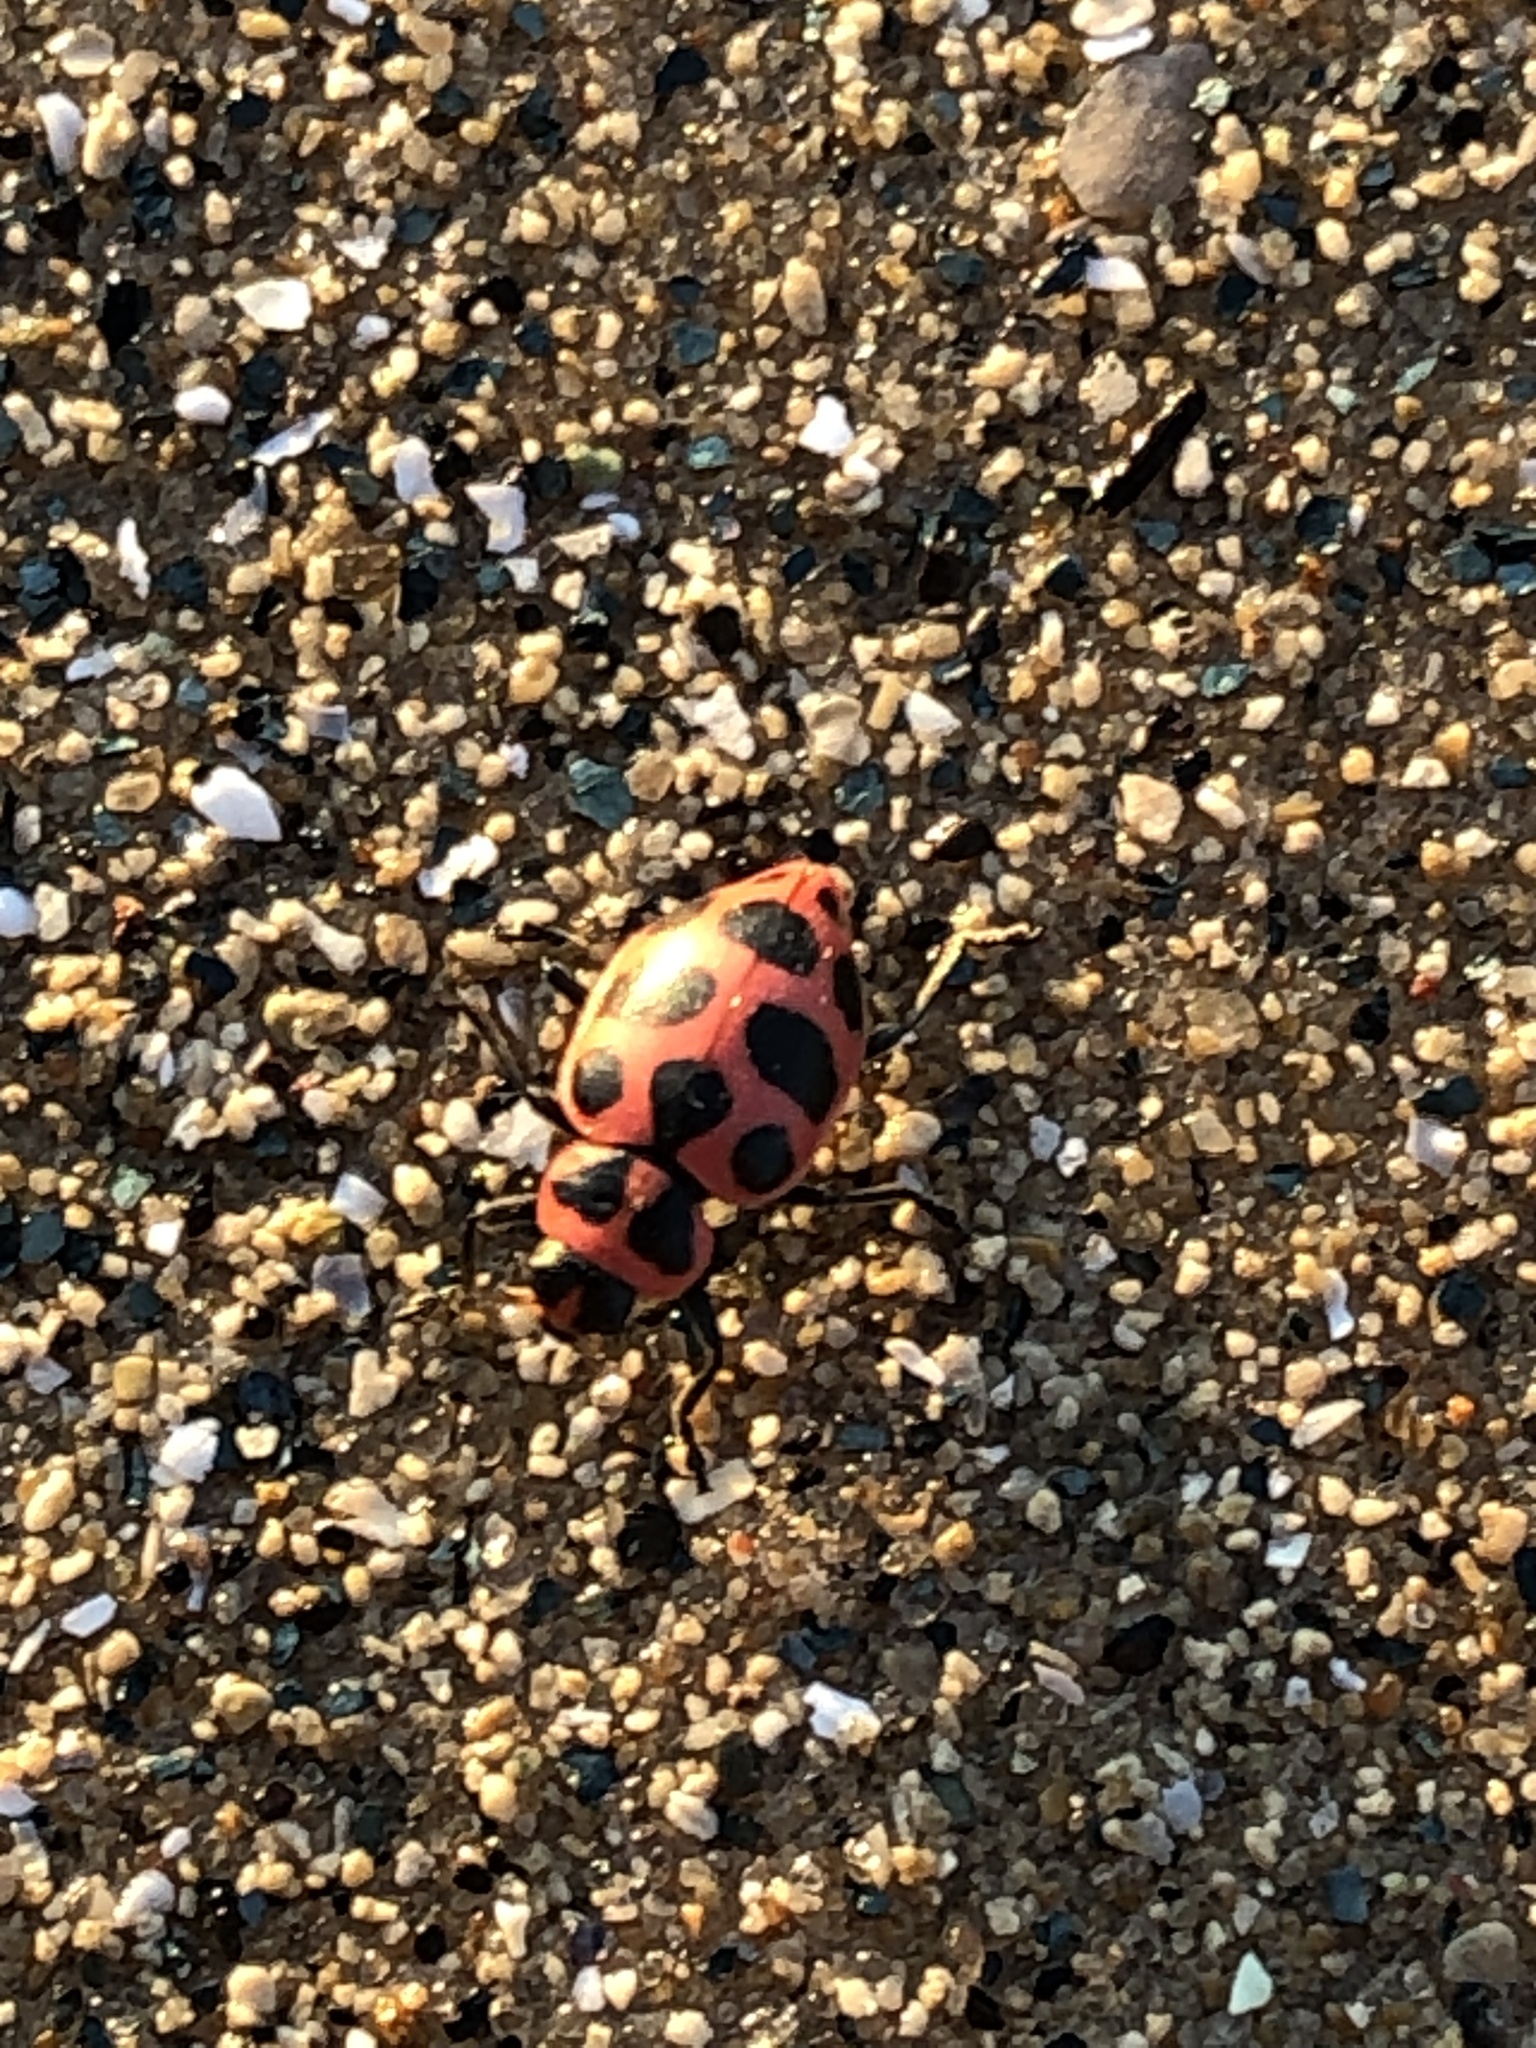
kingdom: Animalia
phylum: Arthropoda
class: Insecta
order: Coleoptera
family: Coccinellidae
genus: Coleomegilla
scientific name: Coleomegilla maculata
